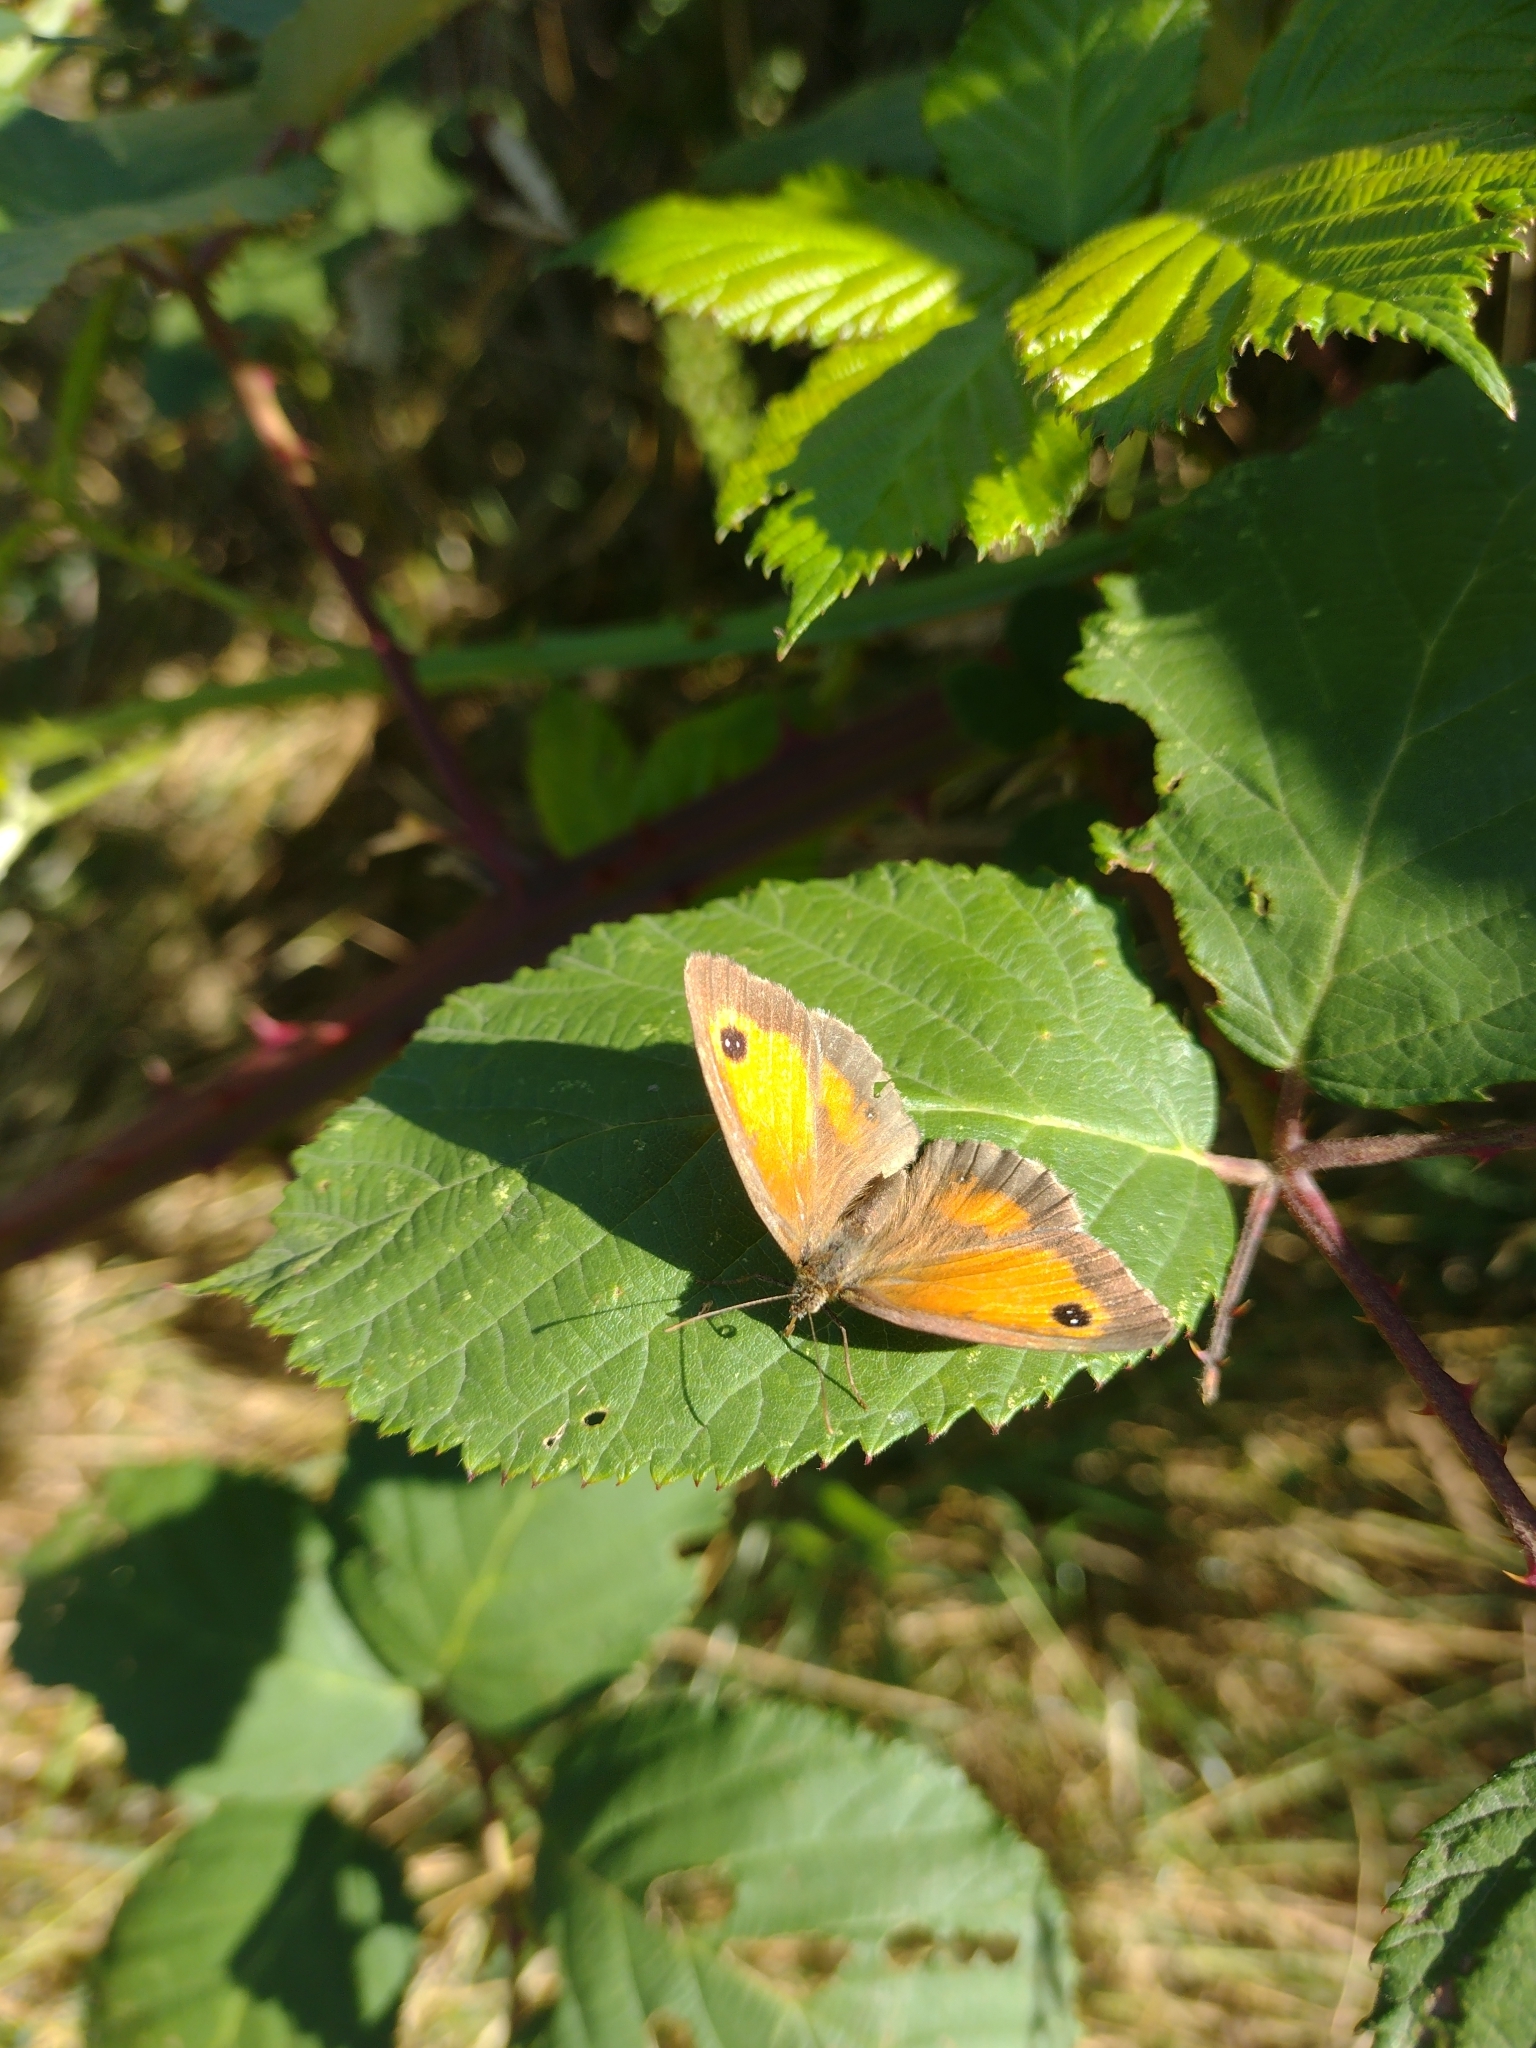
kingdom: Animalia
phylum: Arthropoda
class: Insecta
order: Lepidoptera
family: Nymphalidae
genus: Pyronia
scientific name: Pyronia tithonus
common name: Gatekeeper
